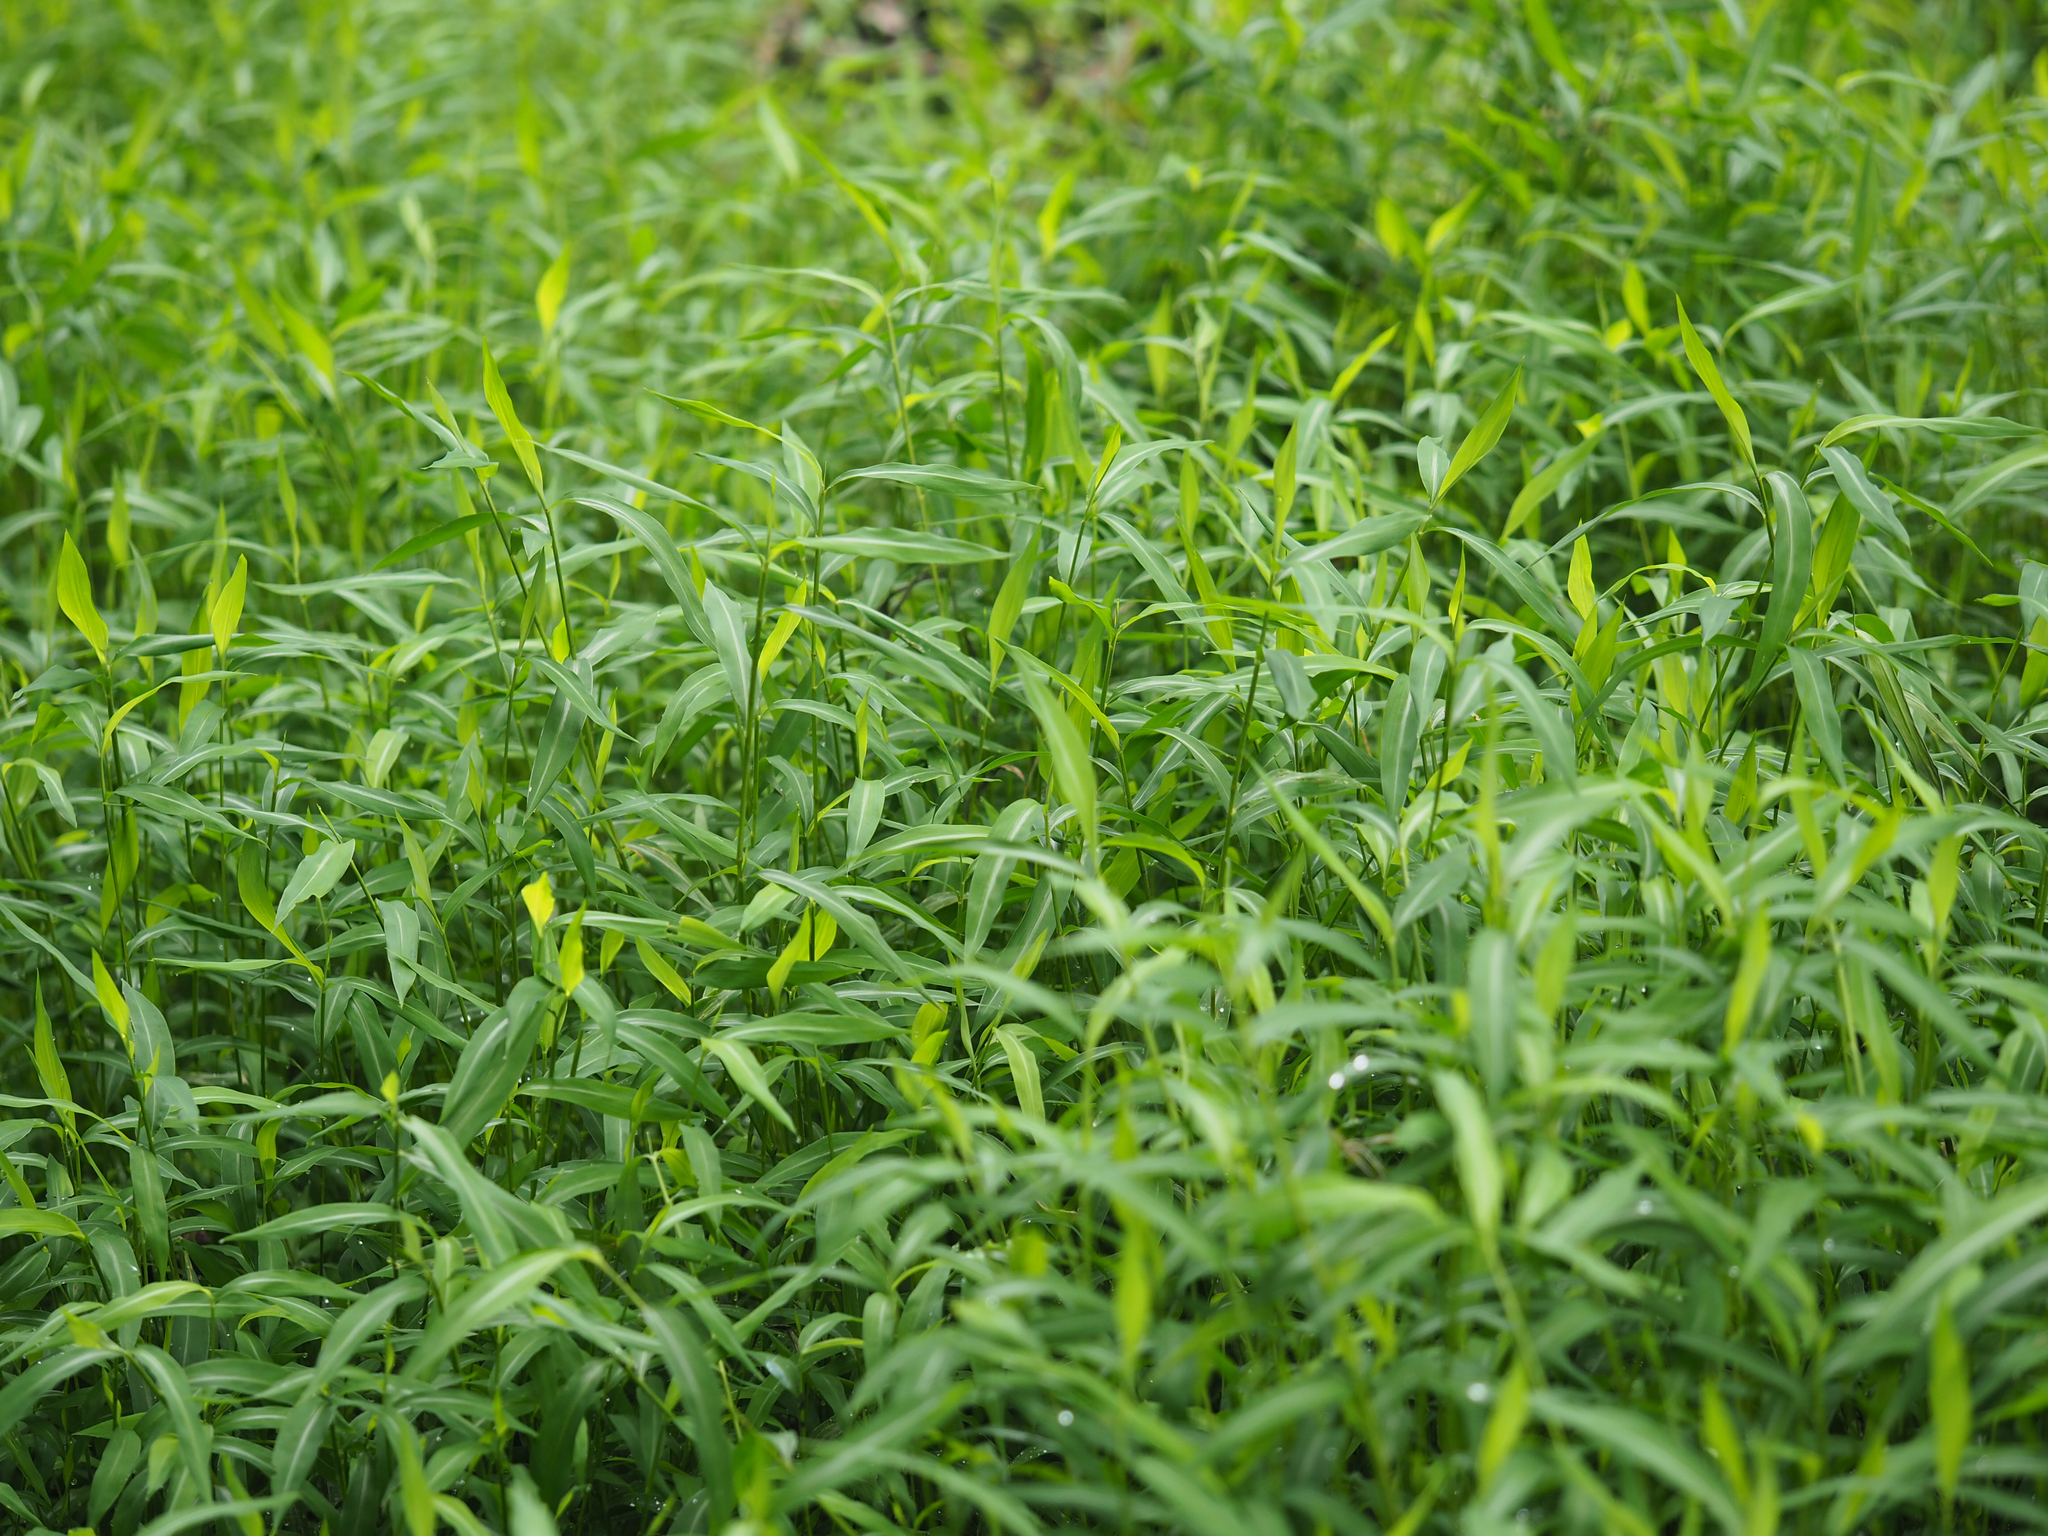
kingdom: Plantae
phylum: Tracheophyta
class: Liliopsida
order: Poales
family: Poaceae
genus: Microstegium
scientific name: Microstegium vimineum
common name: Japanese stiltgrass
